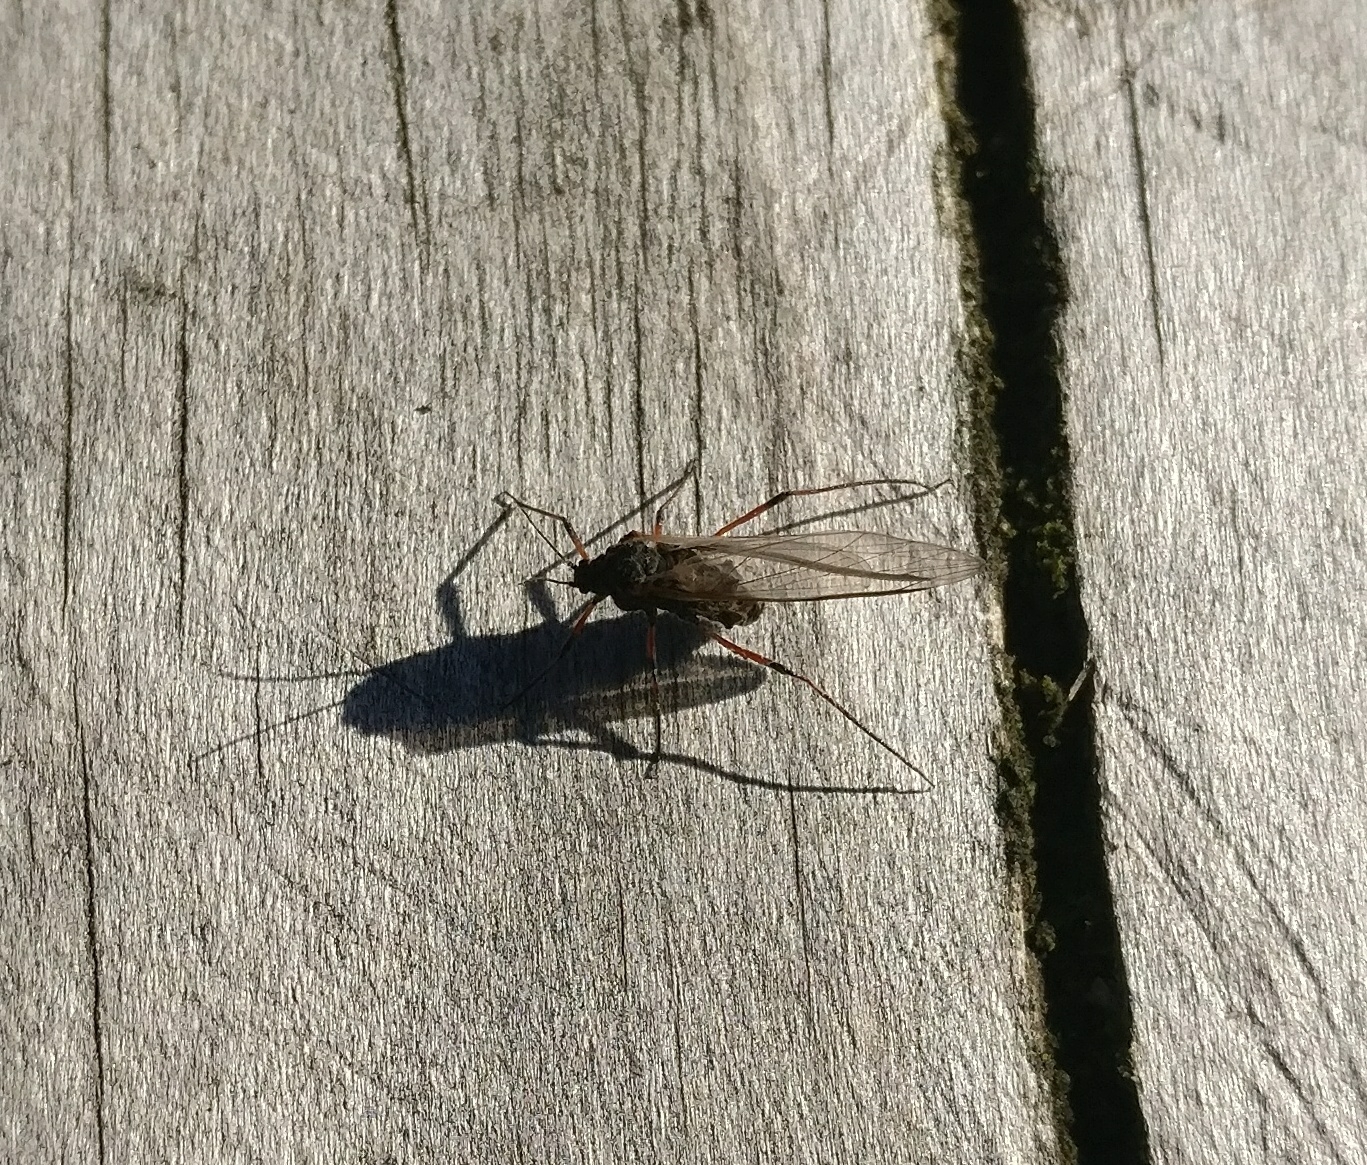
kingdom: Animalia
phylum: Arthropoda
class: Insecta
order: Hemiptera
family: Aphididae
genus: Tuberolachnus
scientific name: Tuberolachnus salignus
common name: Giant willow aphid
